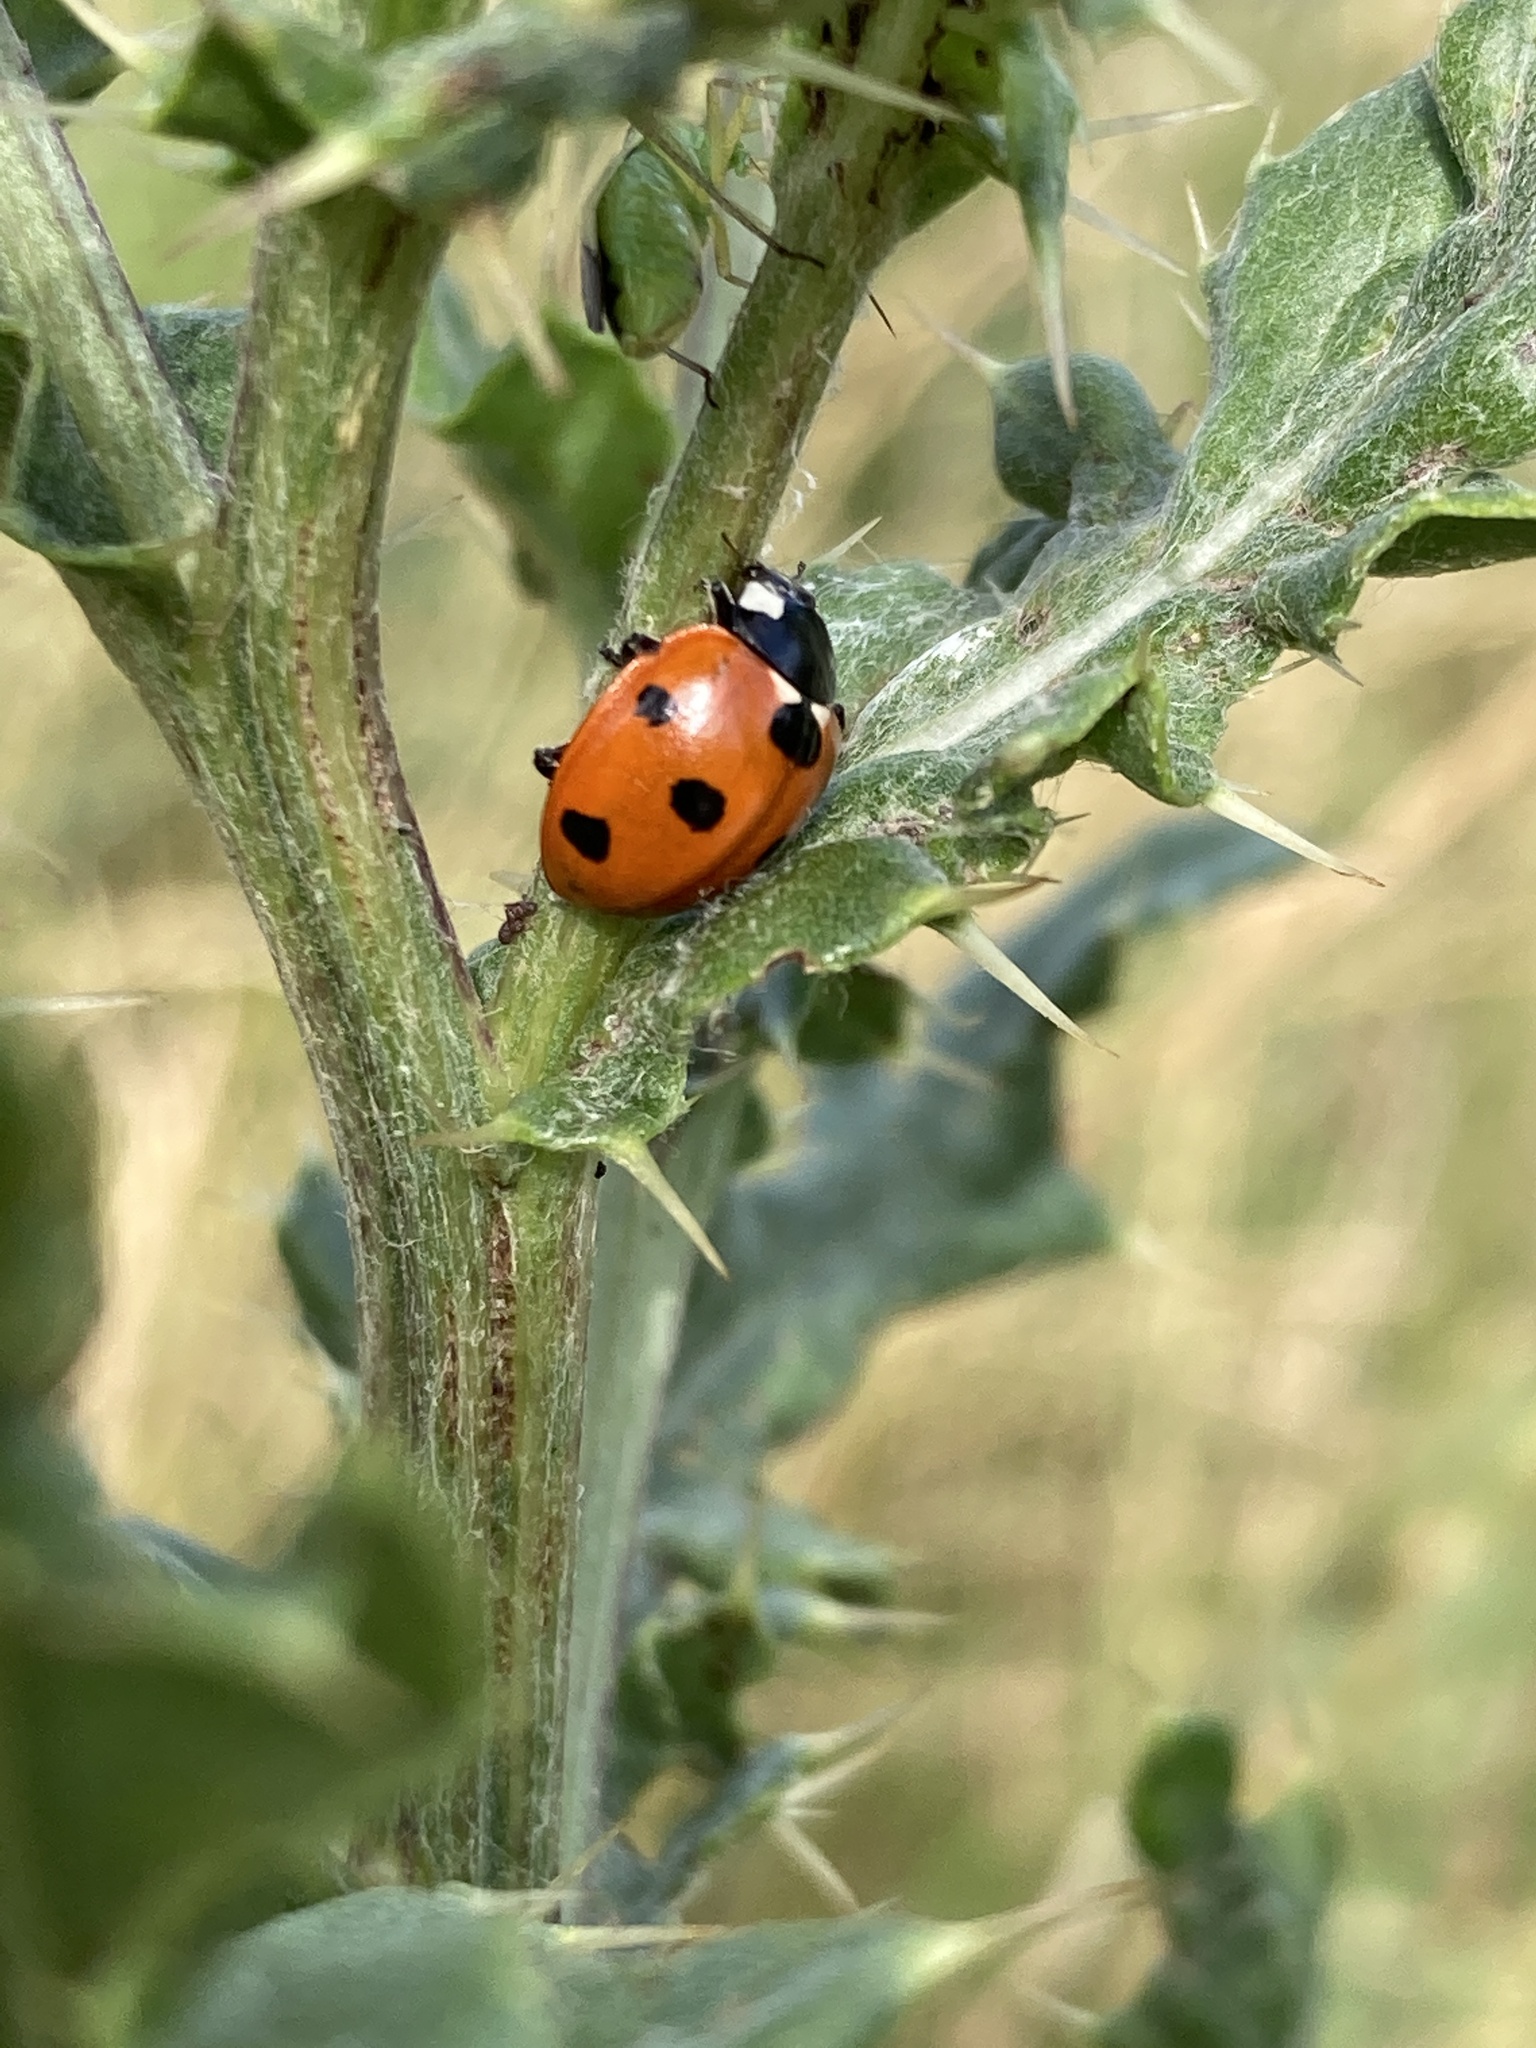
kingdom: Animalia
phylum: Arthropoda
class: Insecta
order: Coleoptera
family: Coccinellidae
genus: Coccinella
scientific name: Coccinella septempunctata
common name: Sevenspotted lady beetle
